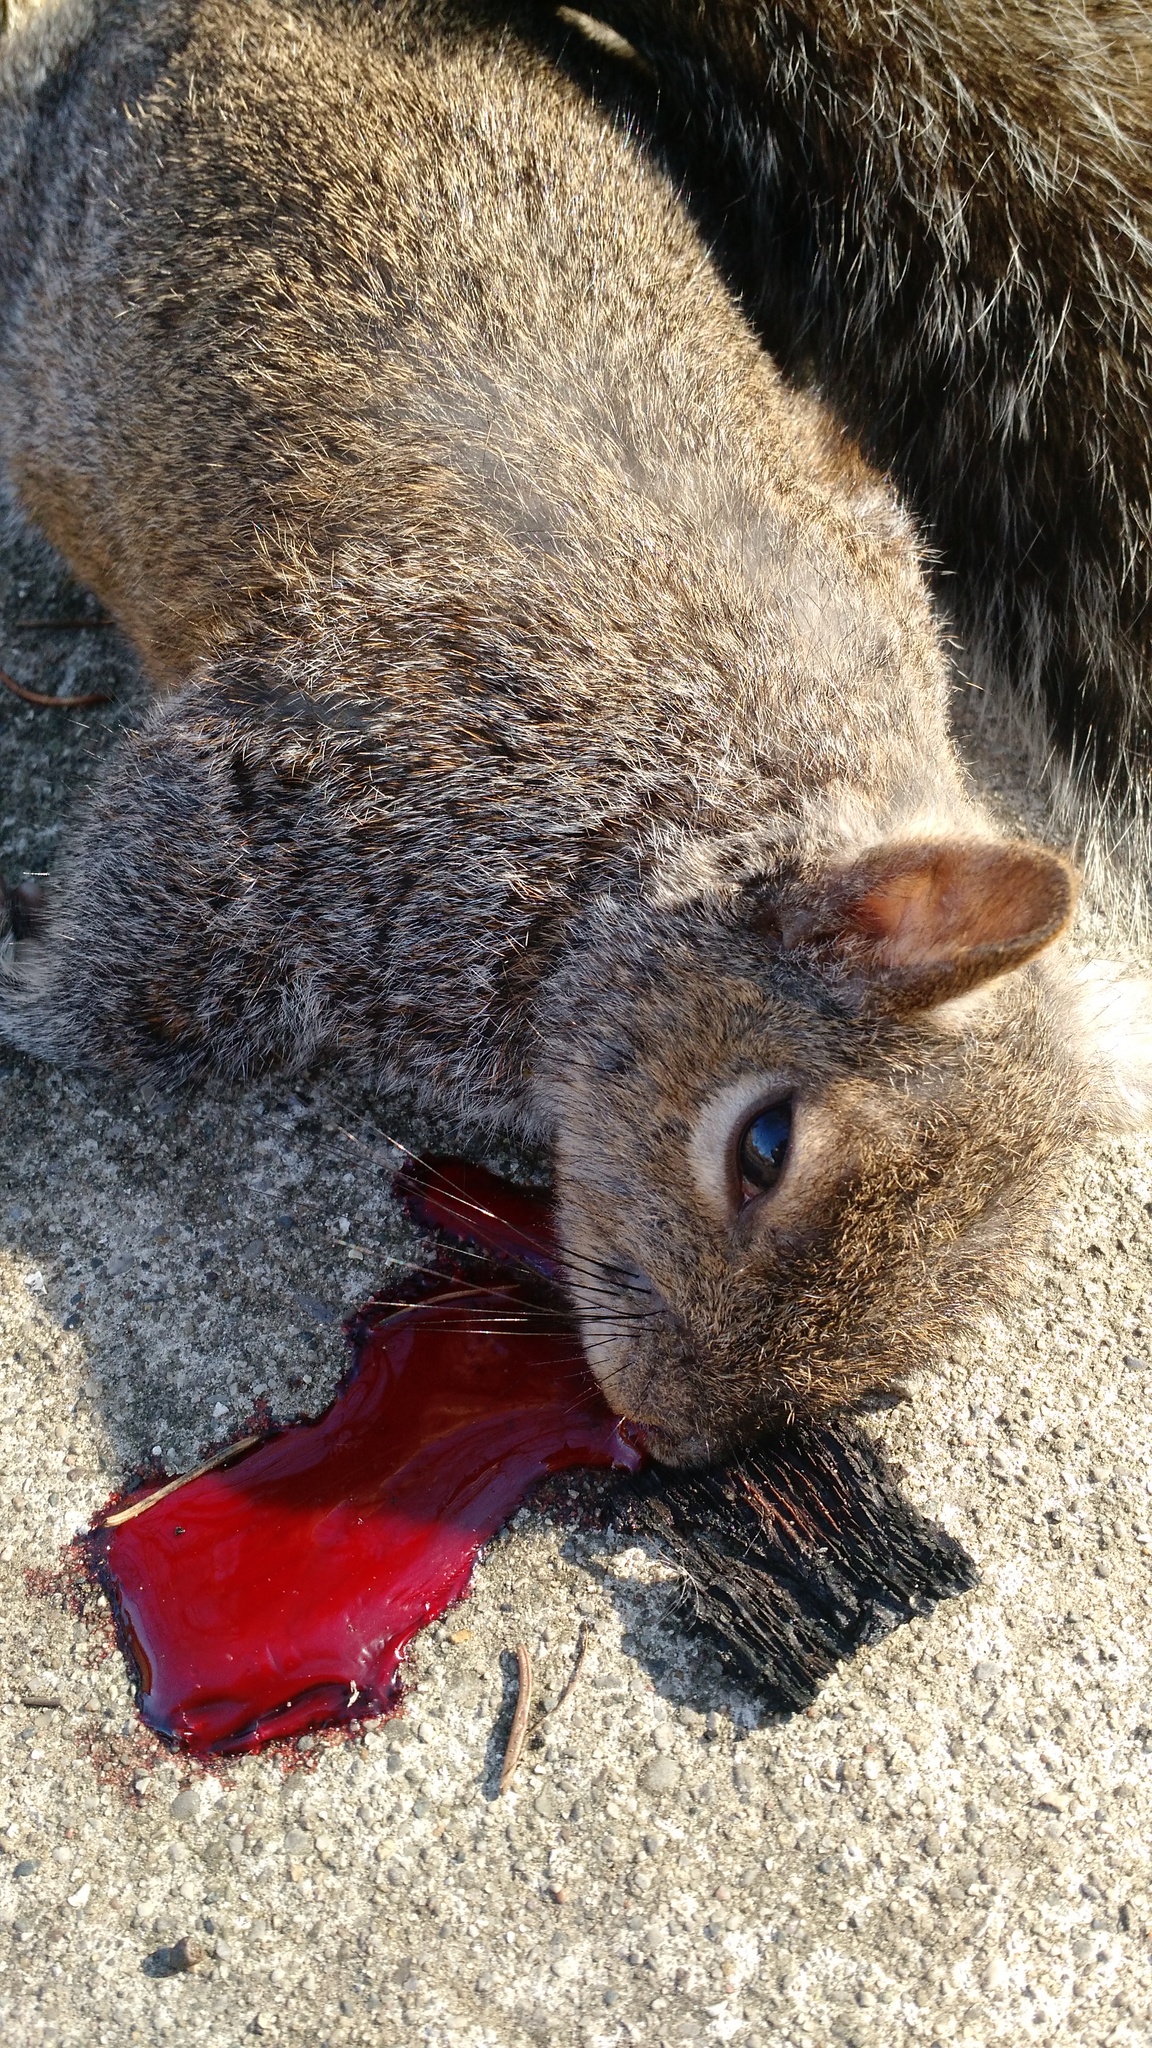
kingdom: Animalia
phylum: Chordata
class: Mammalia
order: Rodentia
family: Sciuridae
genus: Sciurus
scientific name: Sciurus carolinensis
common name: Eastern gray squirrel
